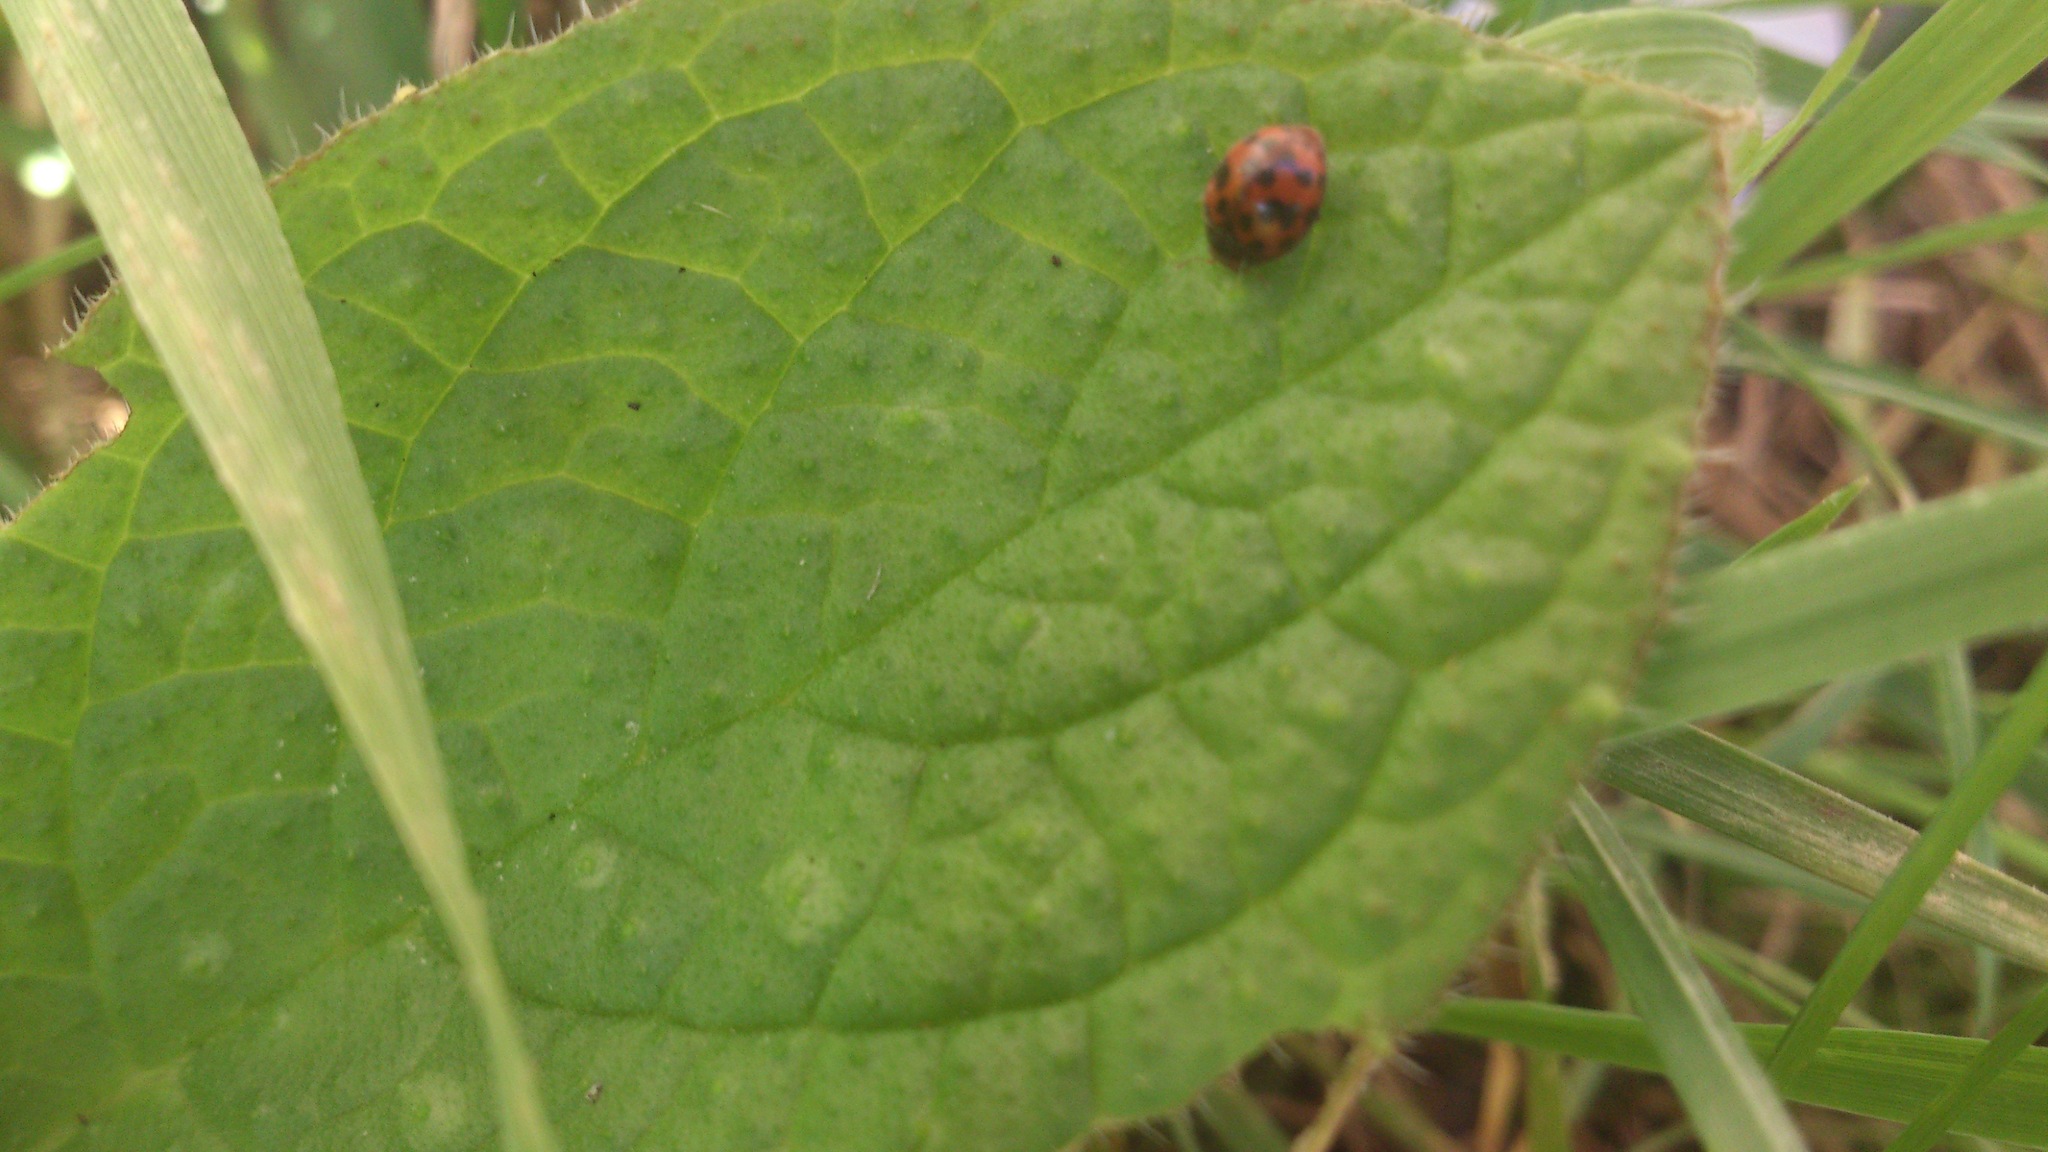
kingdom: Animalia
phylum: Arthropoda
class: Insecta
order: Coleoptera
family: Coccinellidae
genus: Harmonia
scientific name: Harmonia axyridis
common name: Harlequin ladybird
